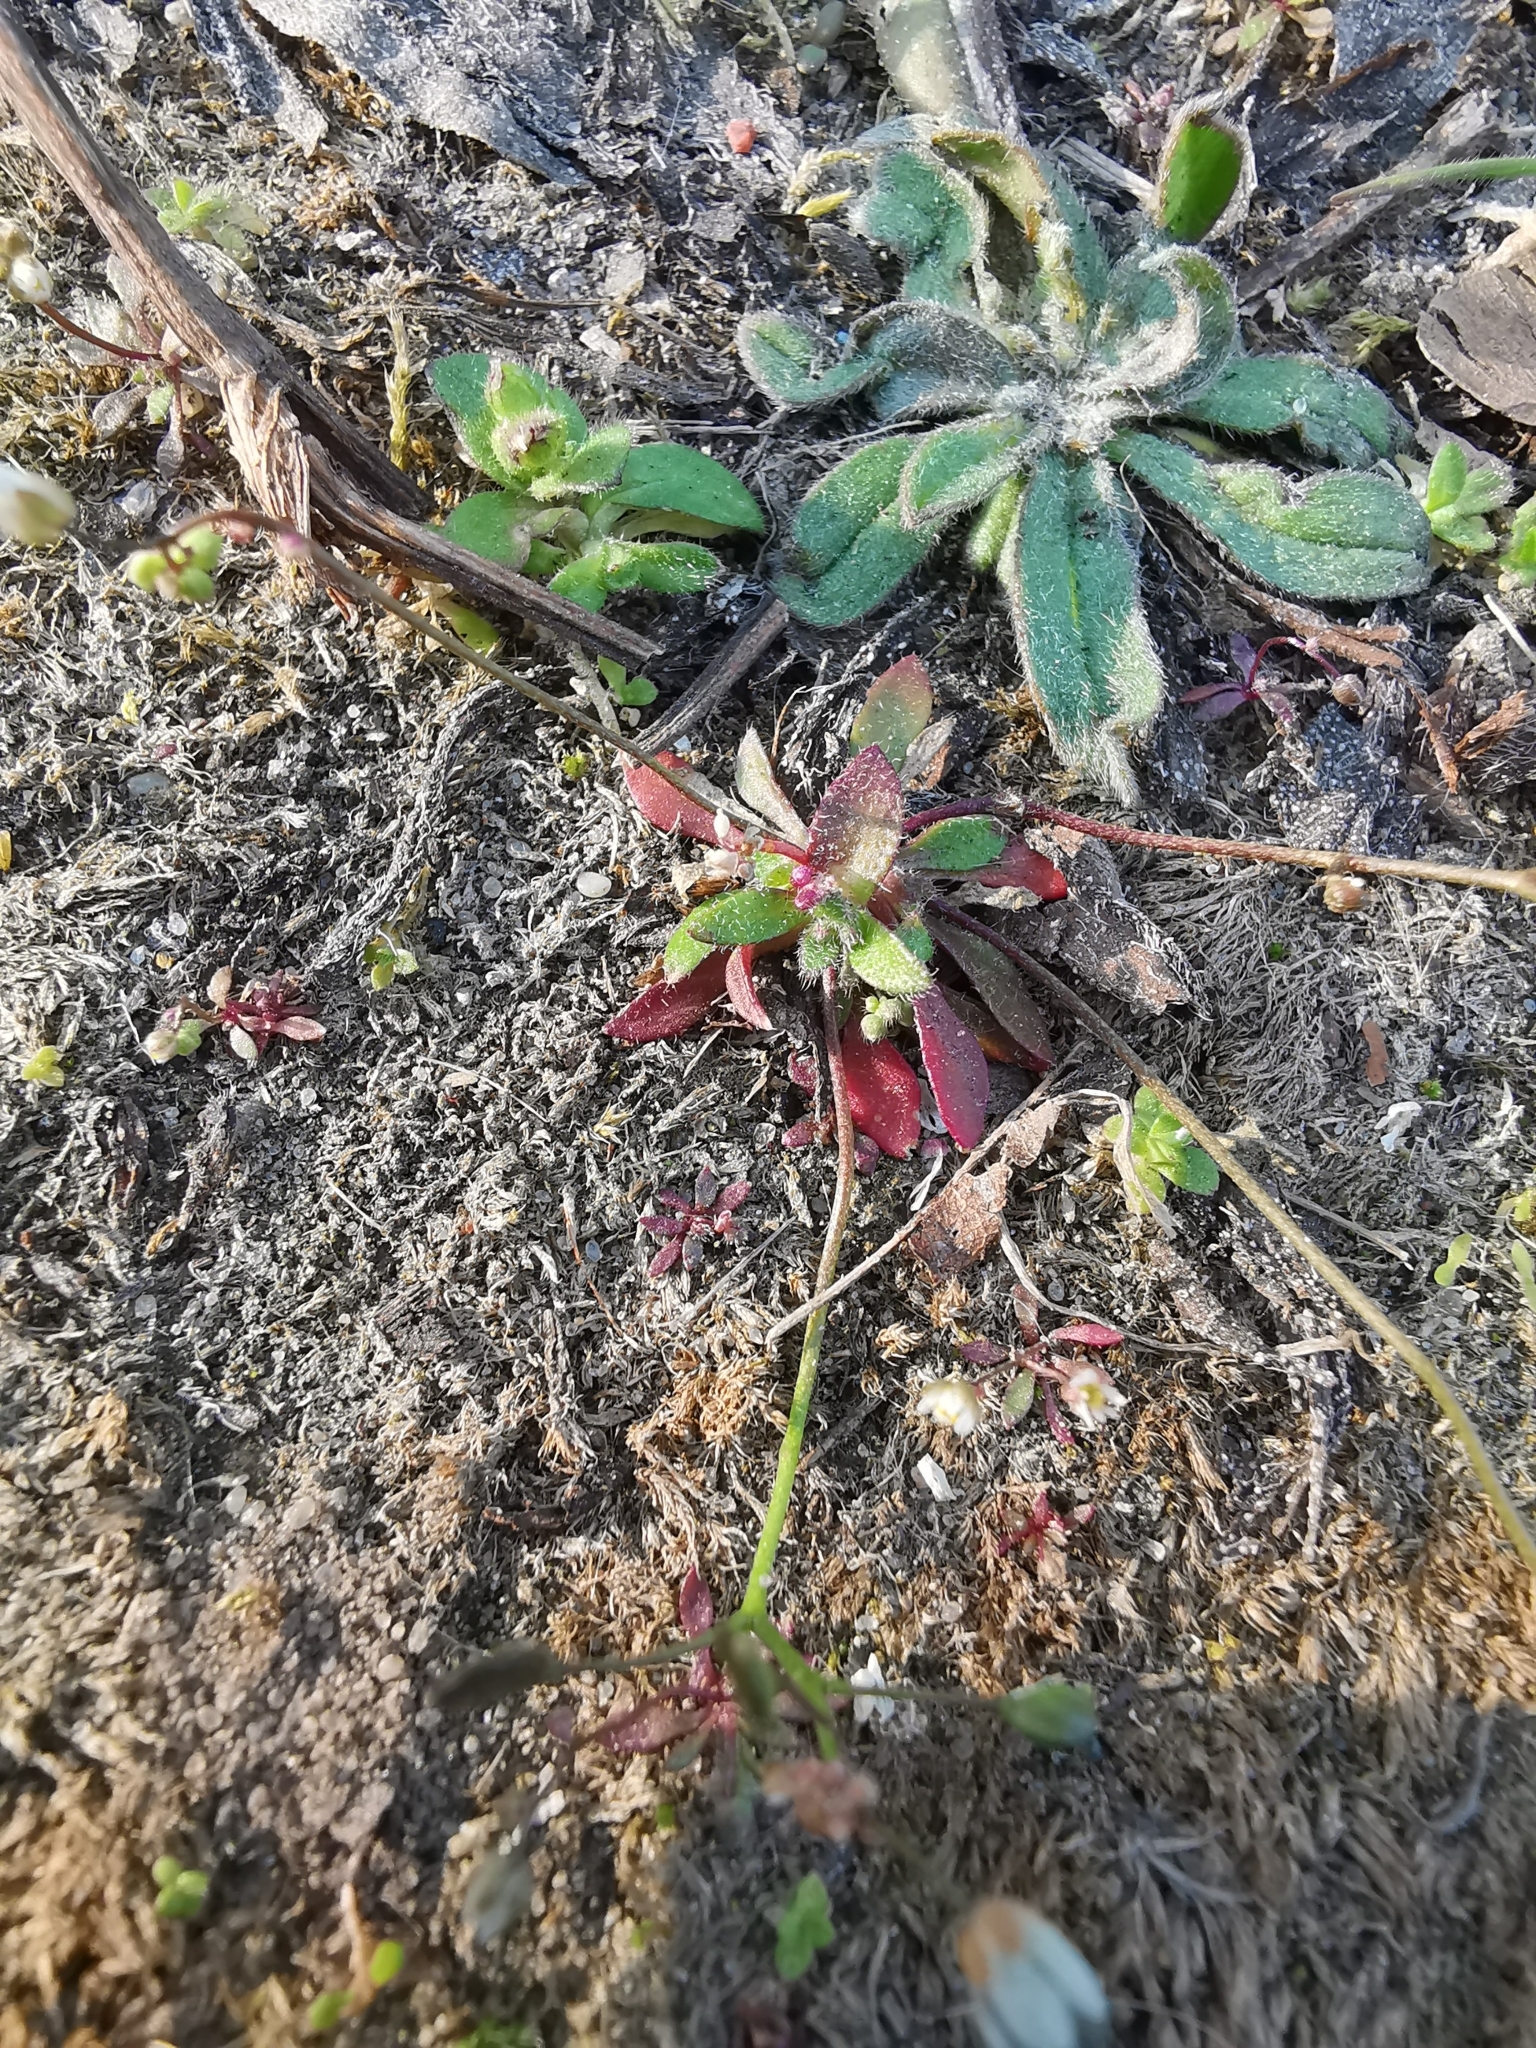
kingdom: Plantae
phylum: Tracheophyta
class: Magnoliopsida
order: Brassicales
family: Brassicaceae
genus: Draba
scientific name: Draba verna
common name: Spring draba
